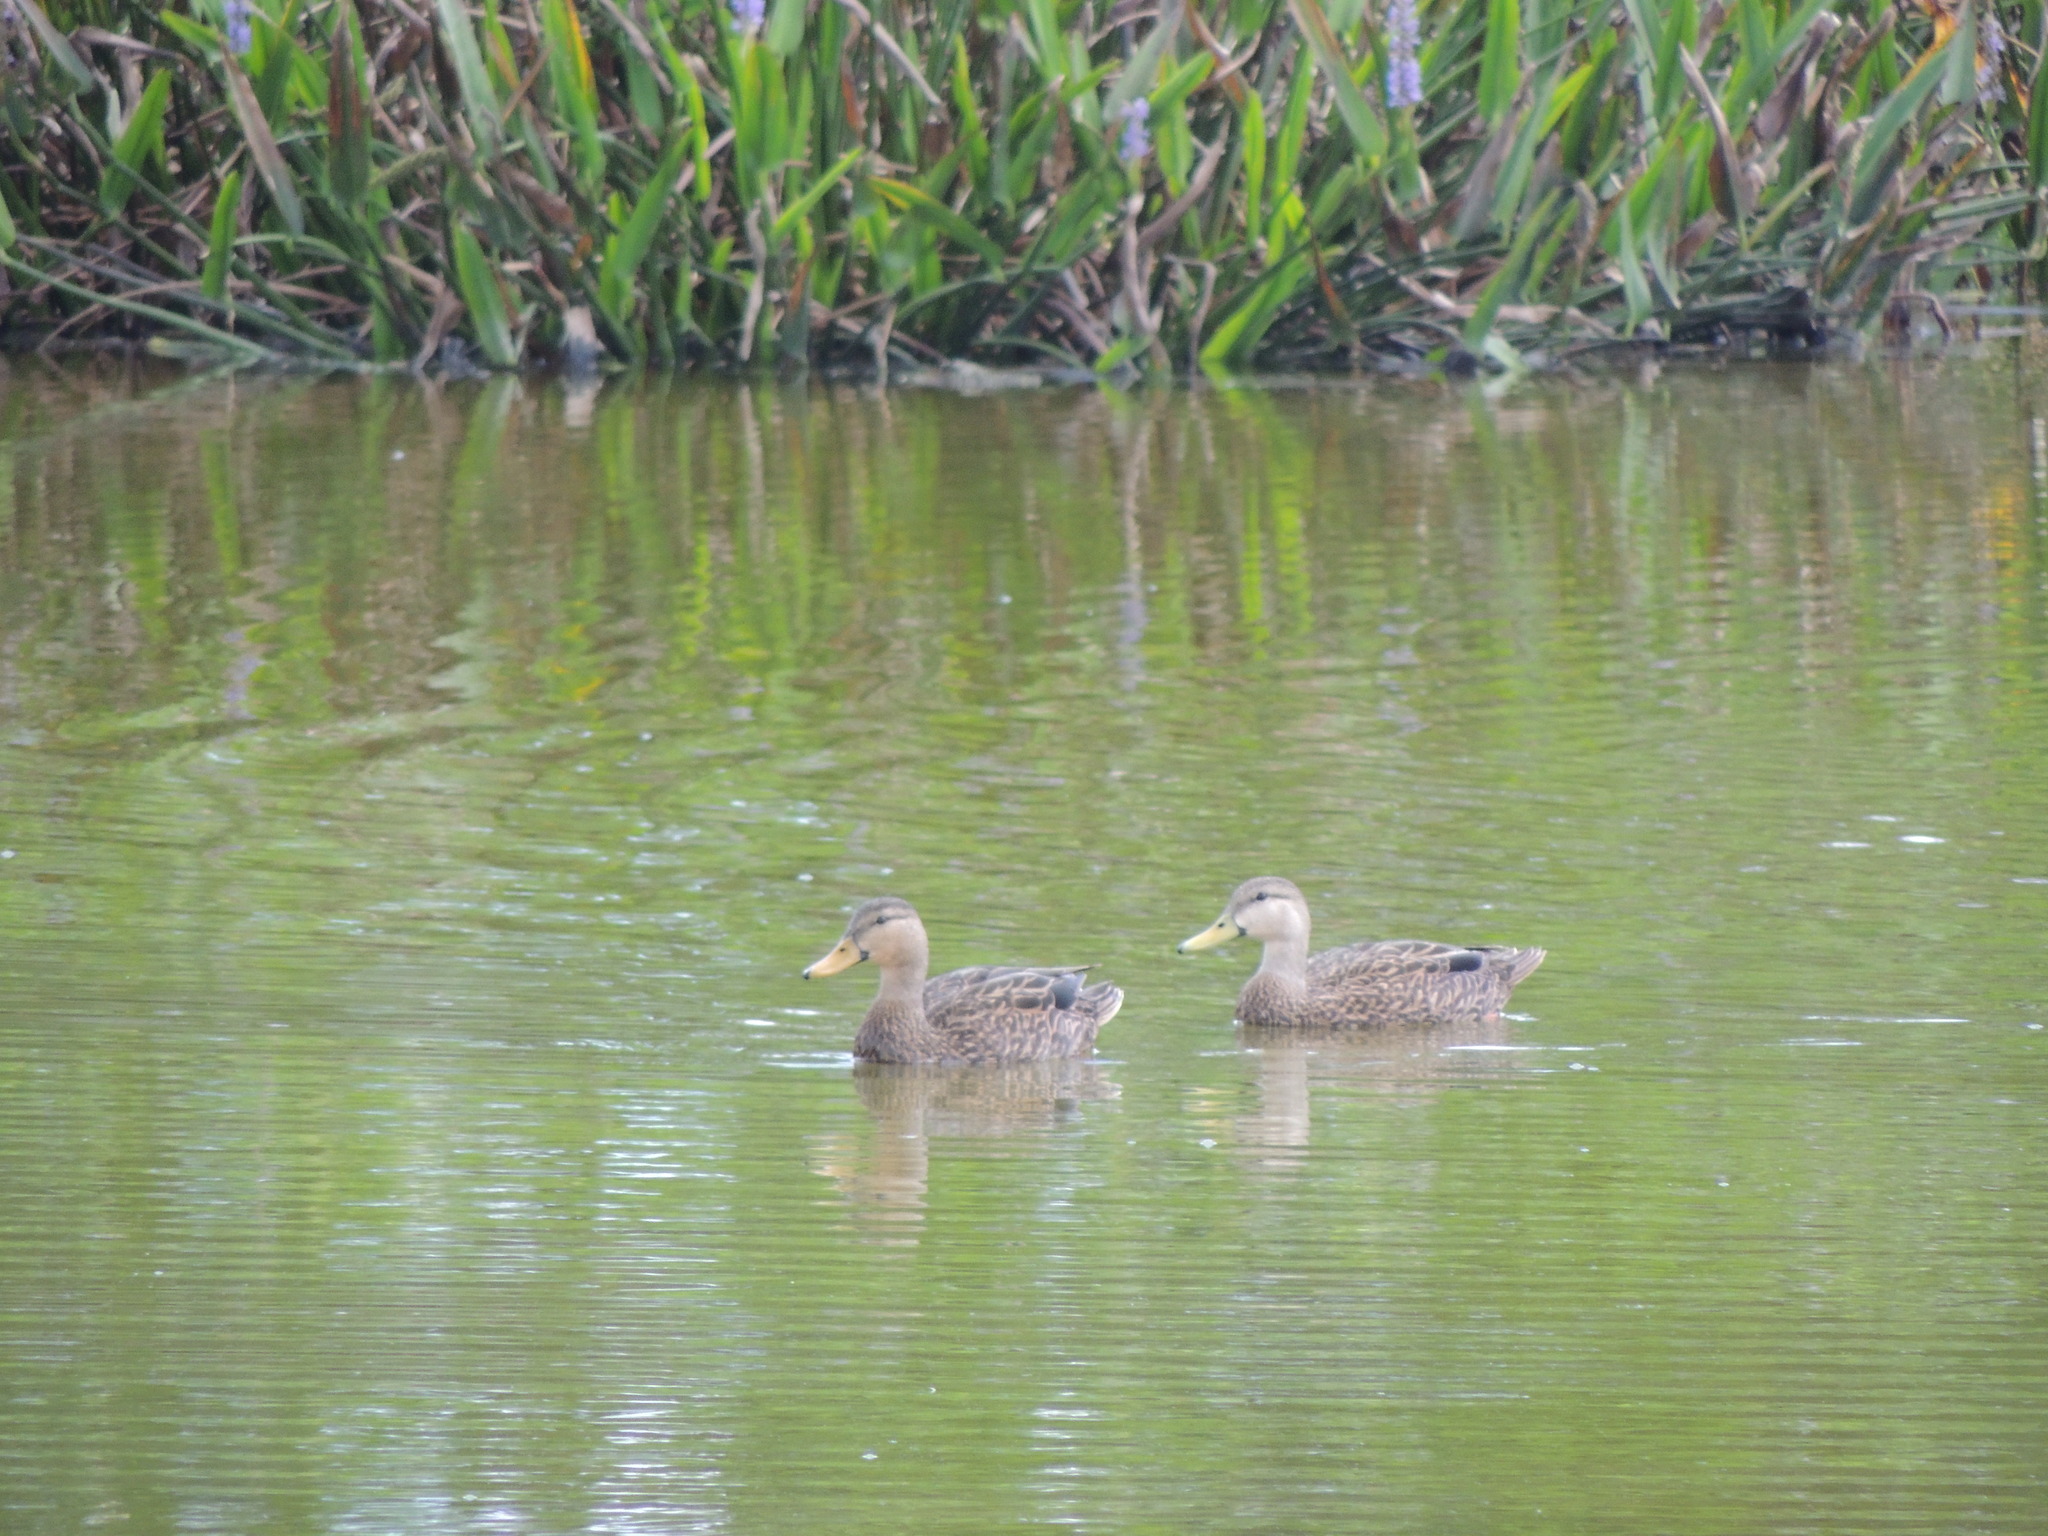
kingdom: Animalia
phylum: Chordata
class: Aves
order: Anseriformes
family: Anatidae
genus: Anas
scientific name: Anas fulvigula
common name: Mottled duck
